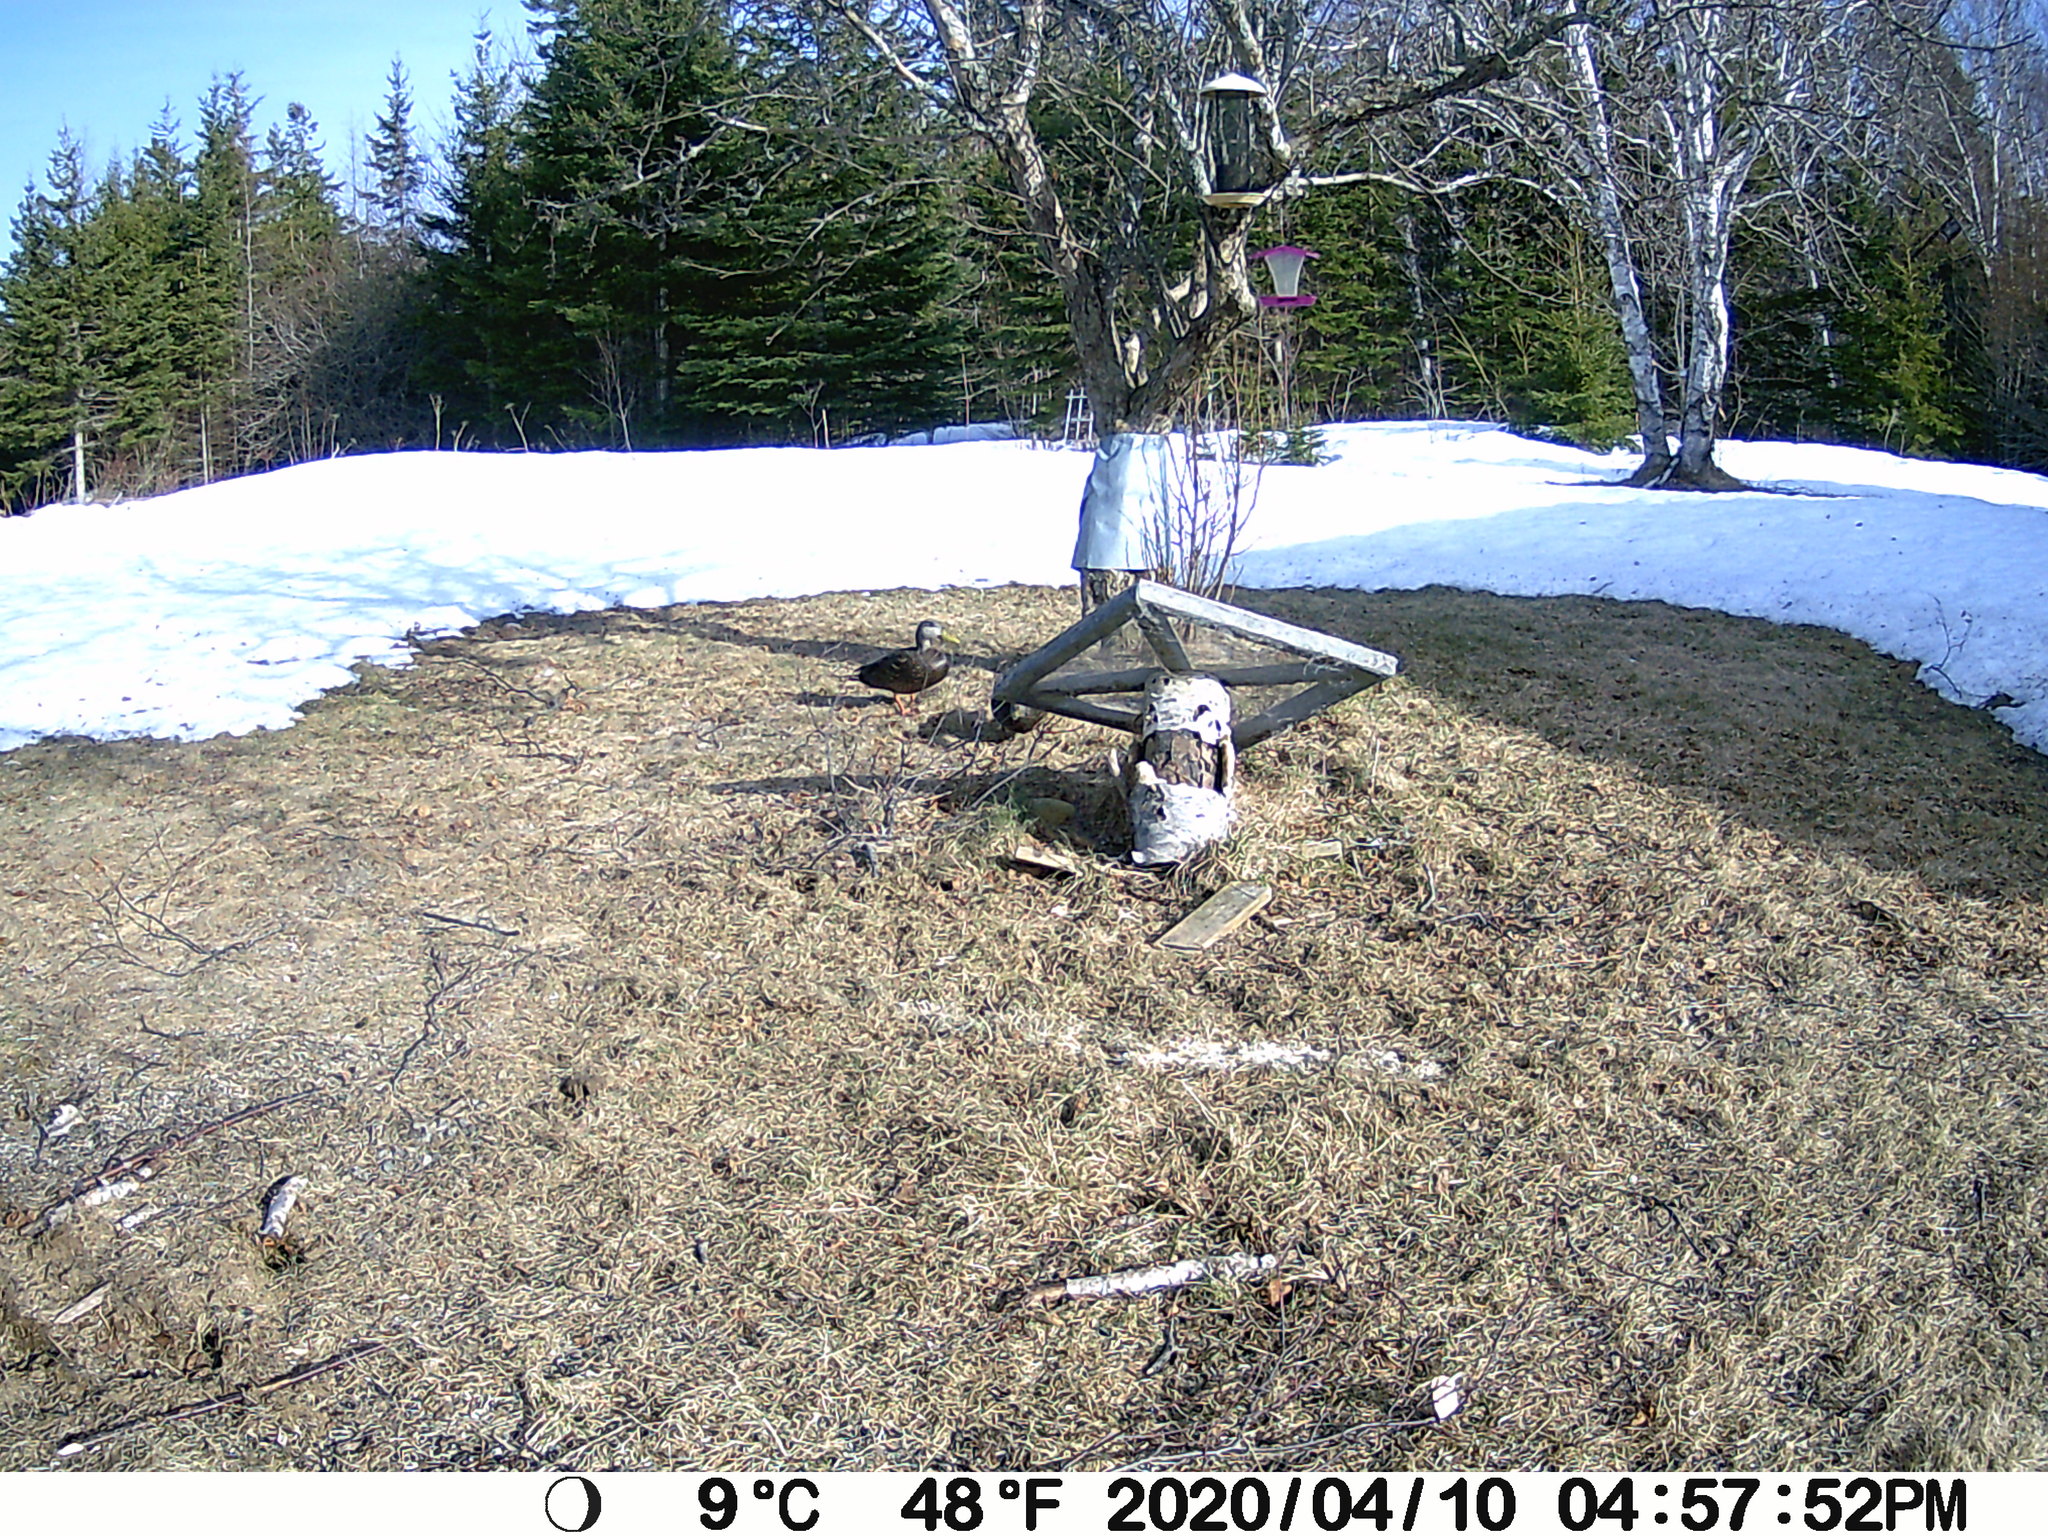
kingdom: Animalia
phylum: Chordata
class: Aves
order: Anseriformes
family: Anatidae
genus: Anas
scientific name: Anas rubripes
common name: American black duck
